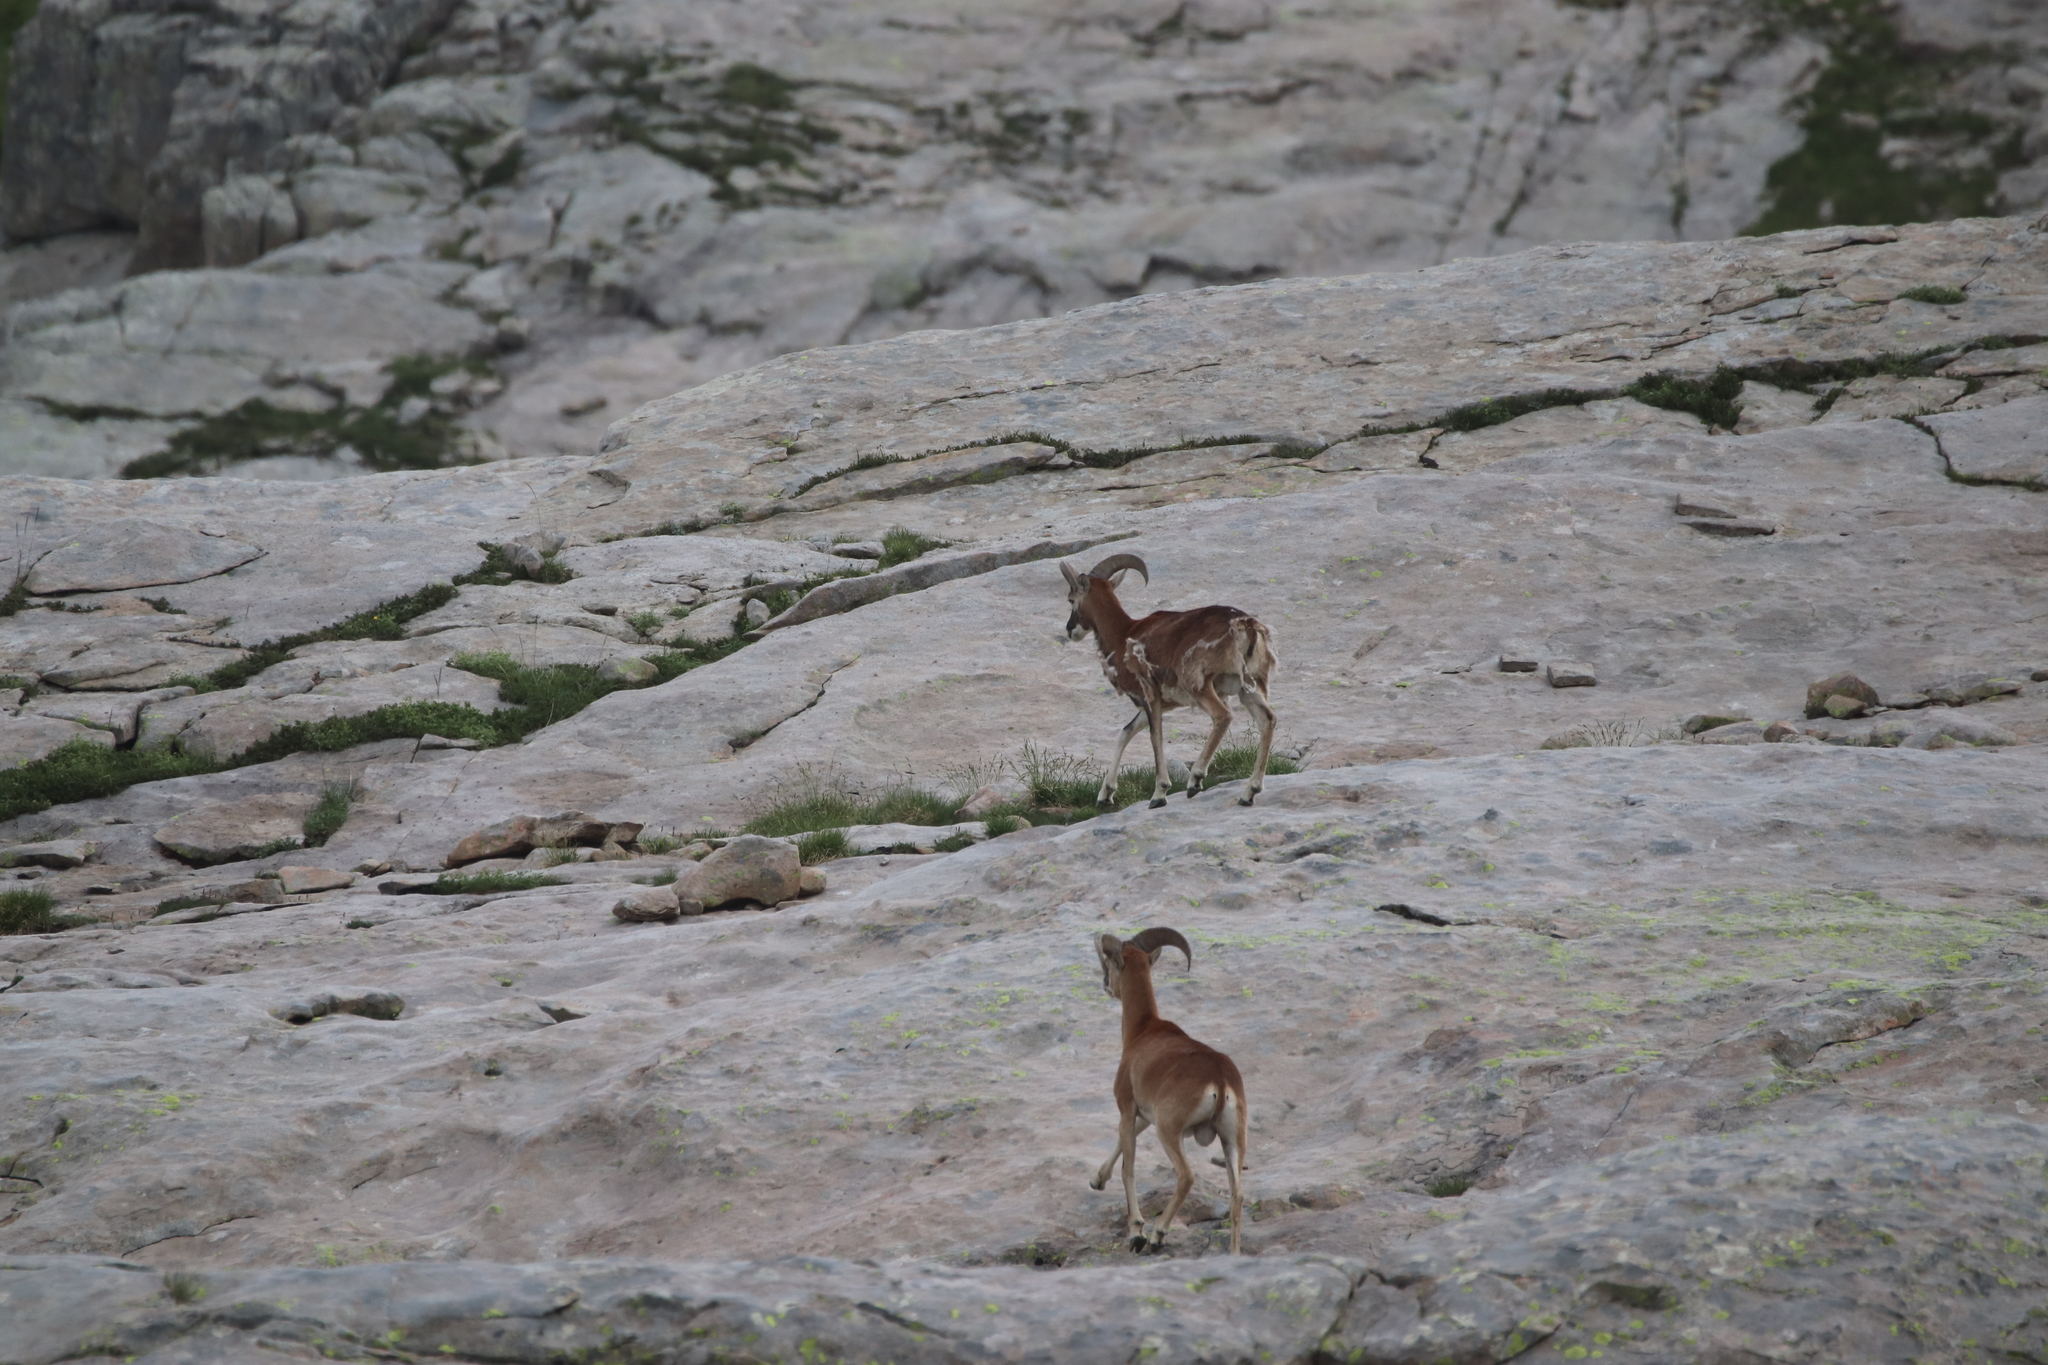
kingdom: Animalia
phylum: Chordata
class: Mammalia
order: Artiodactyla
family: Bovidae
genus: Ovis
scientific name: Ovis aries
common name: Domestic sheep
